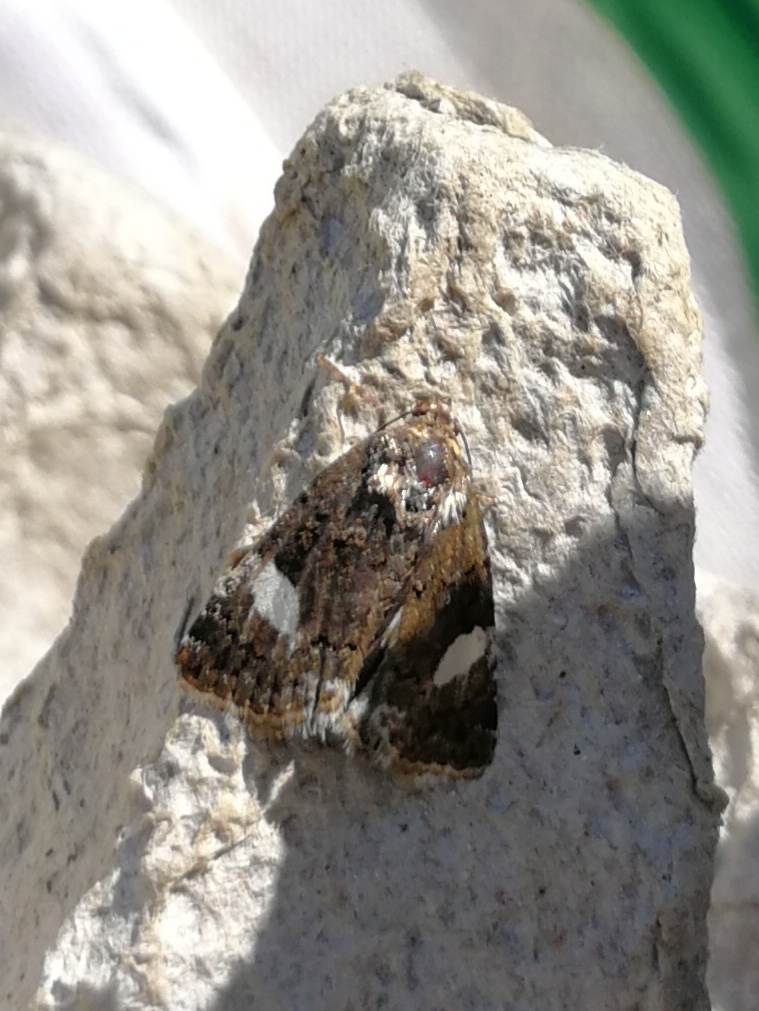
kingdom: Animalia
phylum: Arthropoda
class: Insecta
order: Lepidoptera
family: Erebidae
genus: Tyta
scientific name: Tyta luctuosa
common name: Four-spotted
